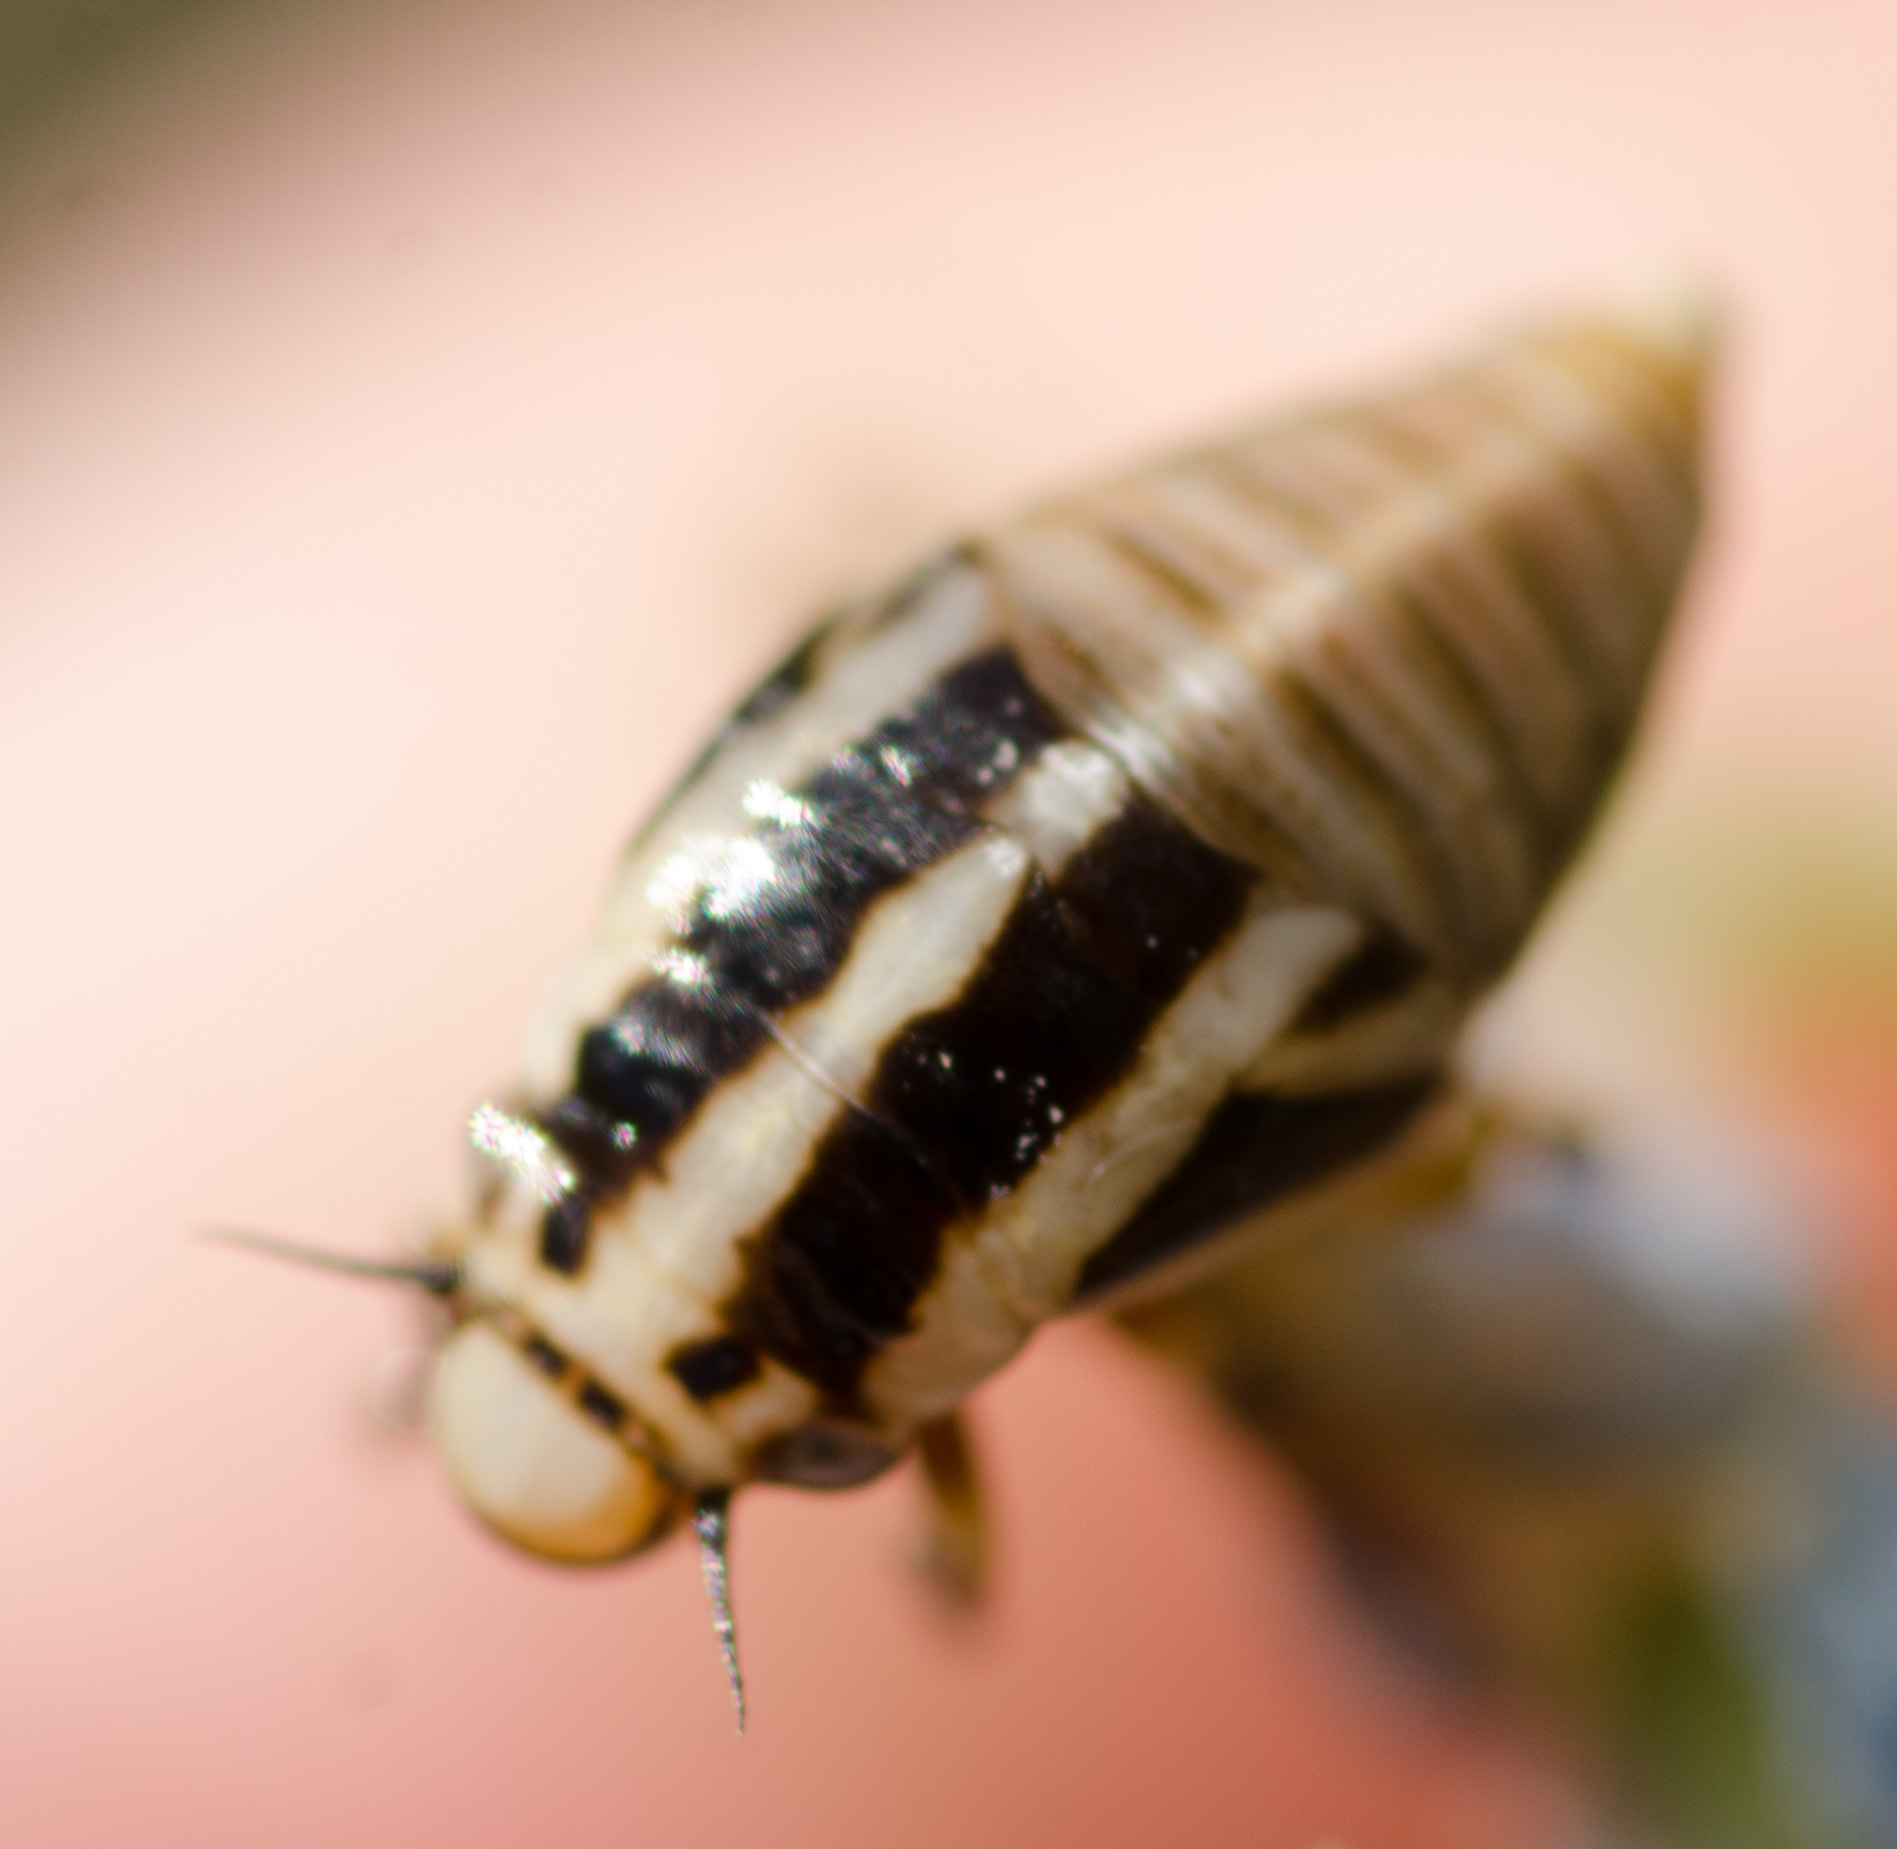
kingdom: Animalia
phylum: Arthropoda
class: Insecta
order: Hemiptera
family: Aphrophoridae
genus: Lepyronia
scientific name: Lepyronia gibbosa
